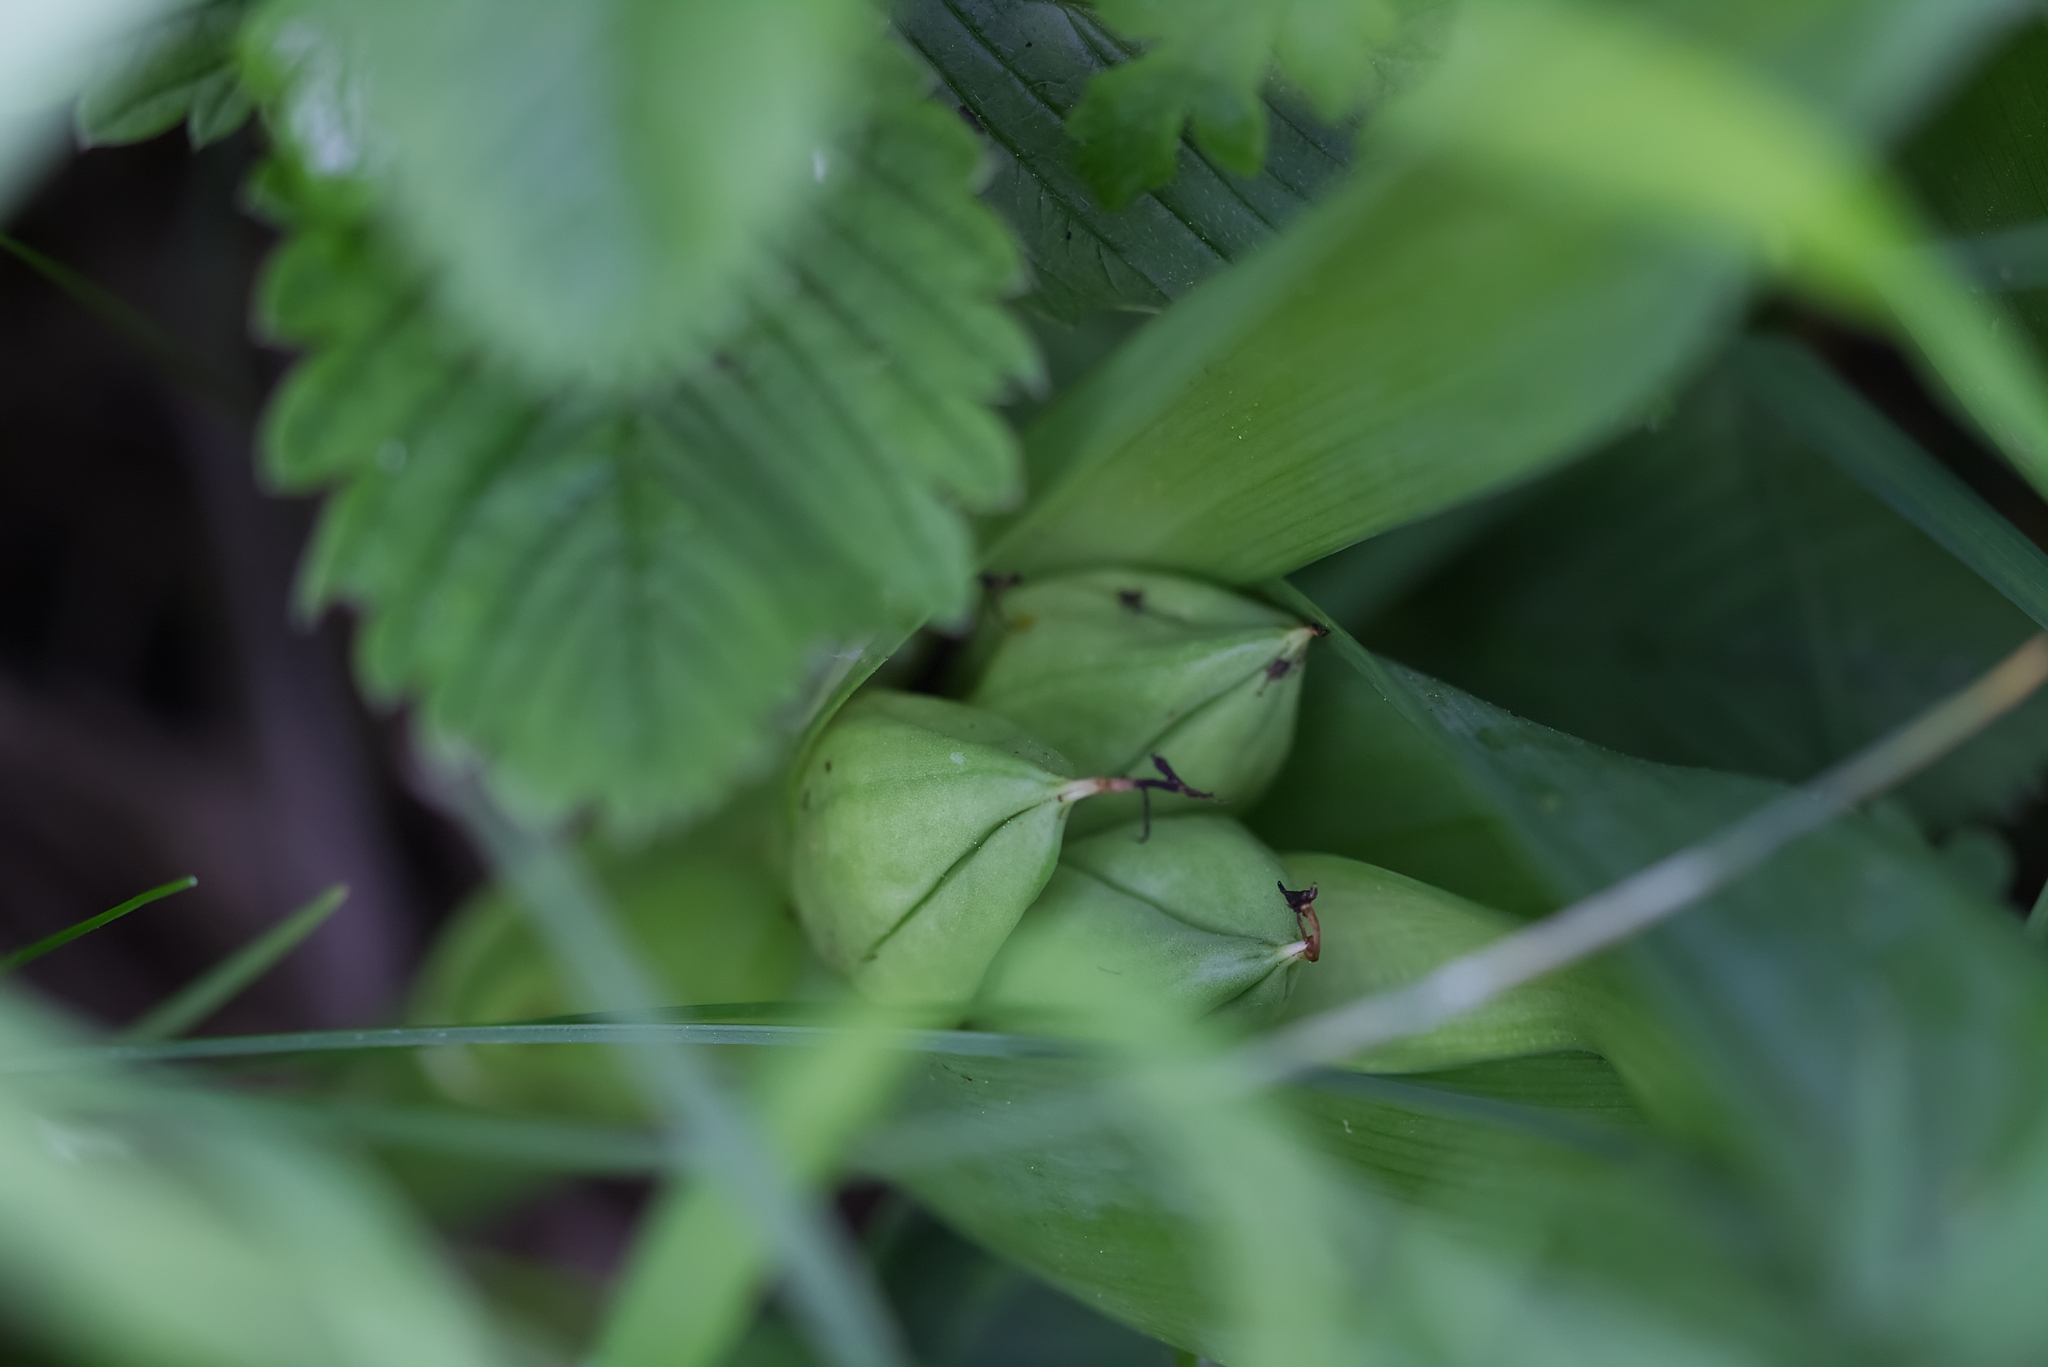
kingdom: Plantae
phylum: Tracheophyta
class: Liliopsida
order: Liliales
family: Colchicaceae
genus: Colchicum
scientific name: Colchicum autumnale
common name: Autumn crocus
